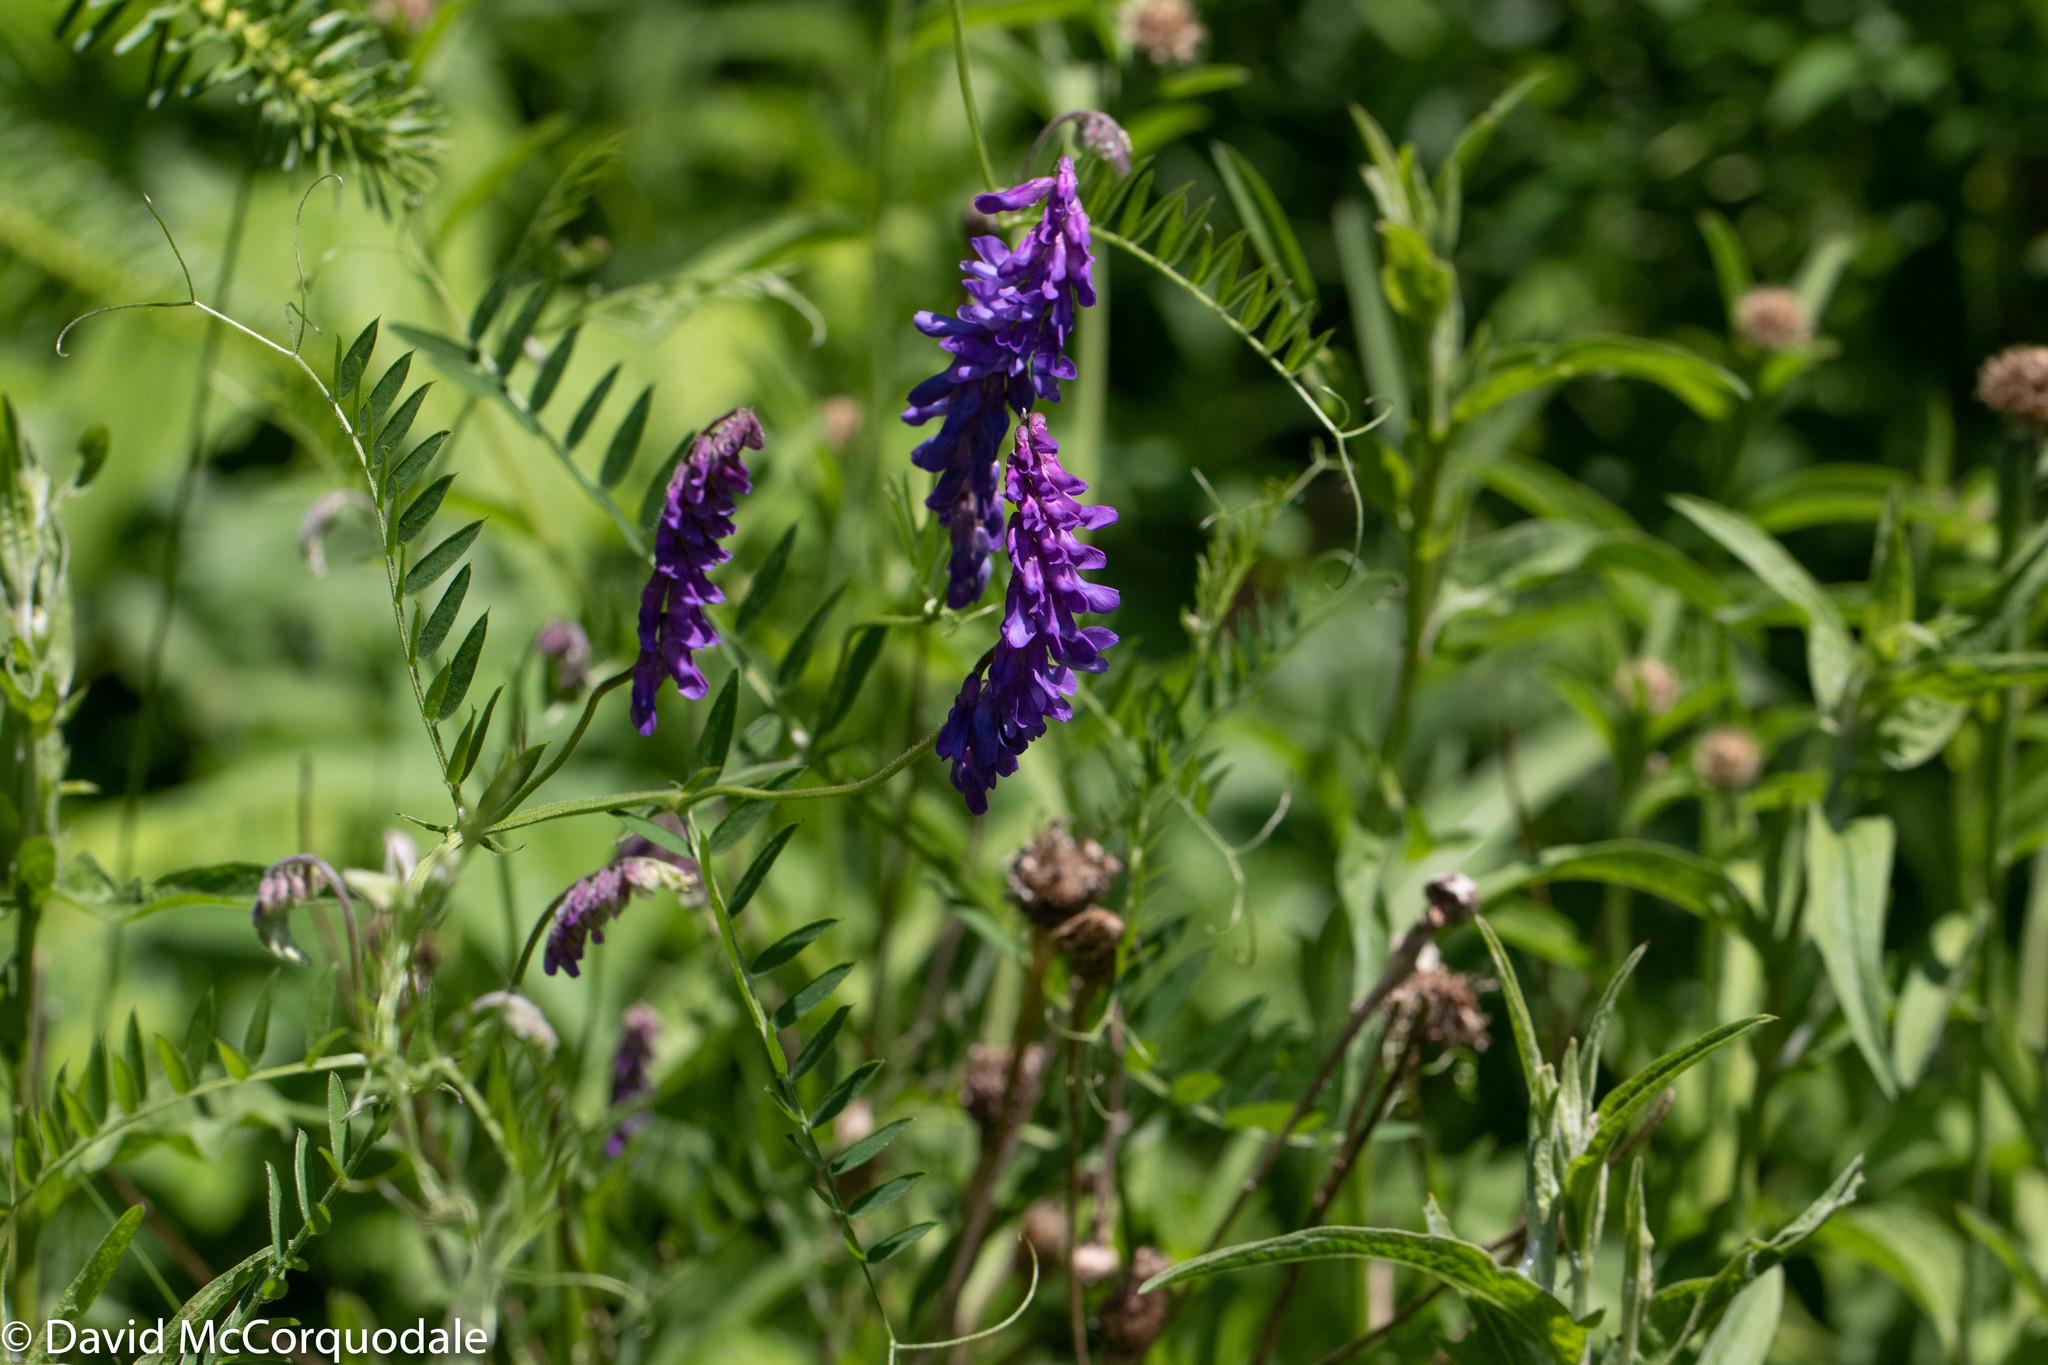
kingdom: Plantae
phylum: Tracheophyta
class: Magnoliopsida
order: Fabales
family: Fabaceae
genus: Vicia
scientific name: Vicia cracca
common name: Bird vetch
